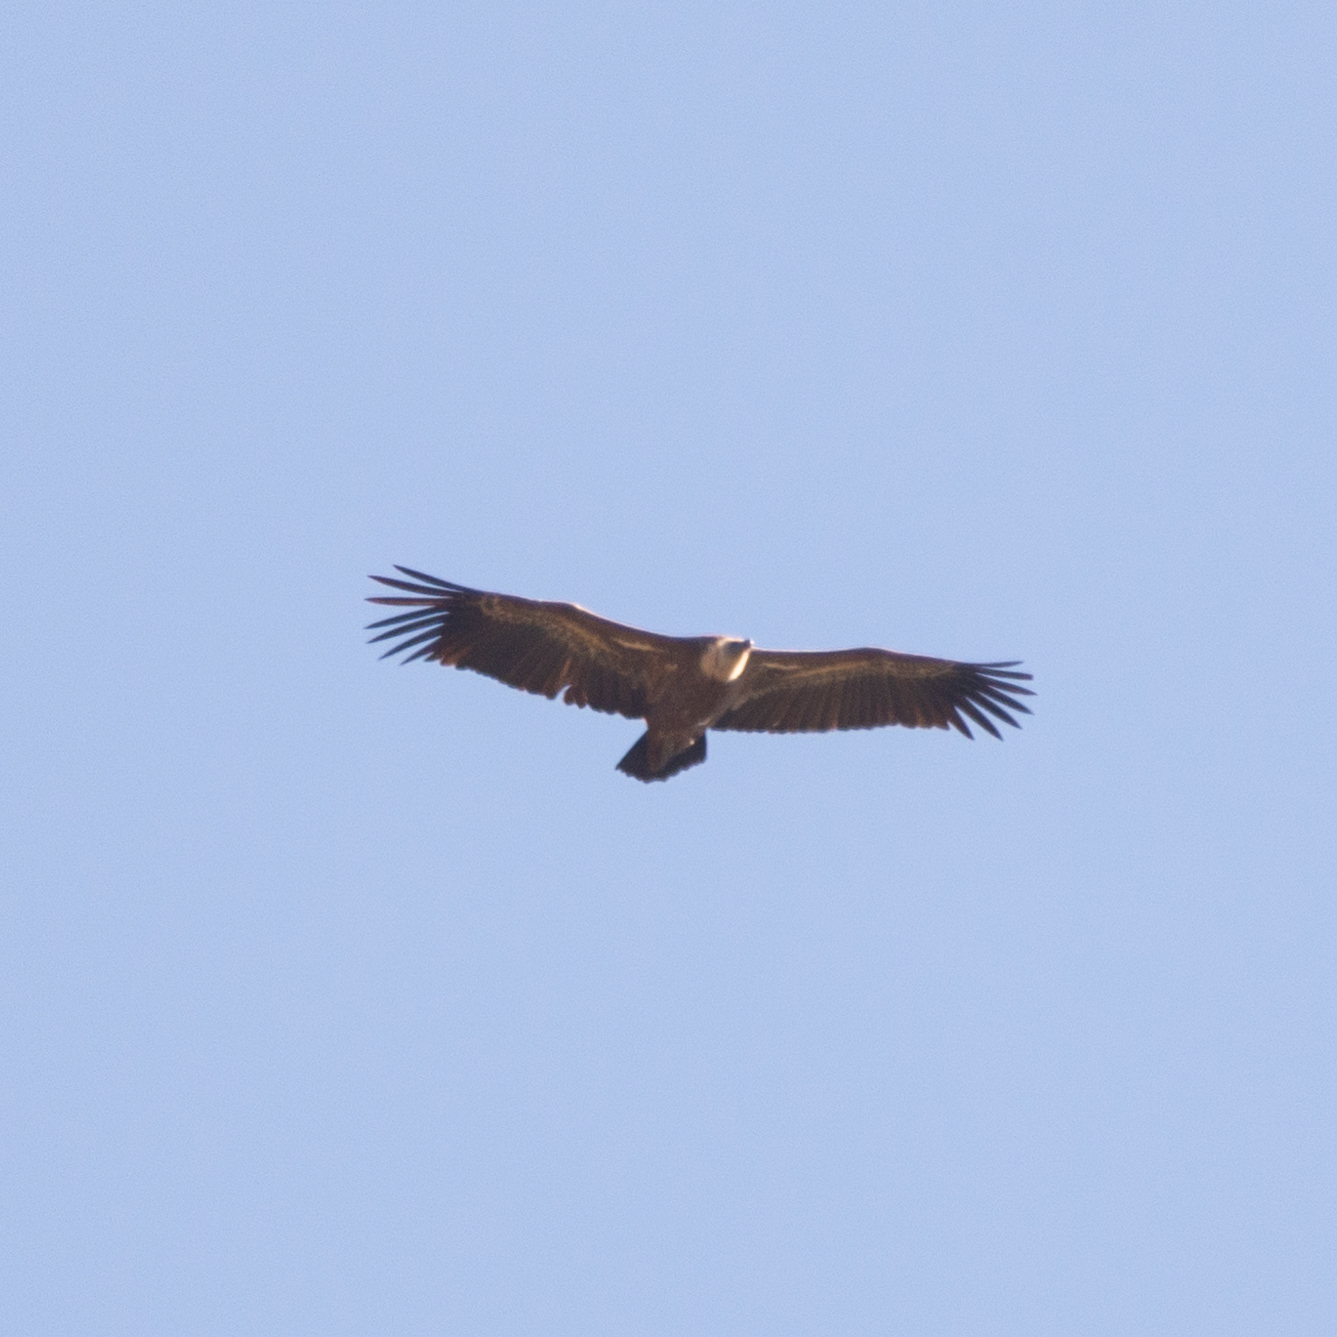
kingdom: Animalia
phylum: Chordata
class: Aves
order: Accipitriformes
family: Accipitridae
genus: Gyps
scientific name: Gyps fulvus
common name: Griffon vulture
